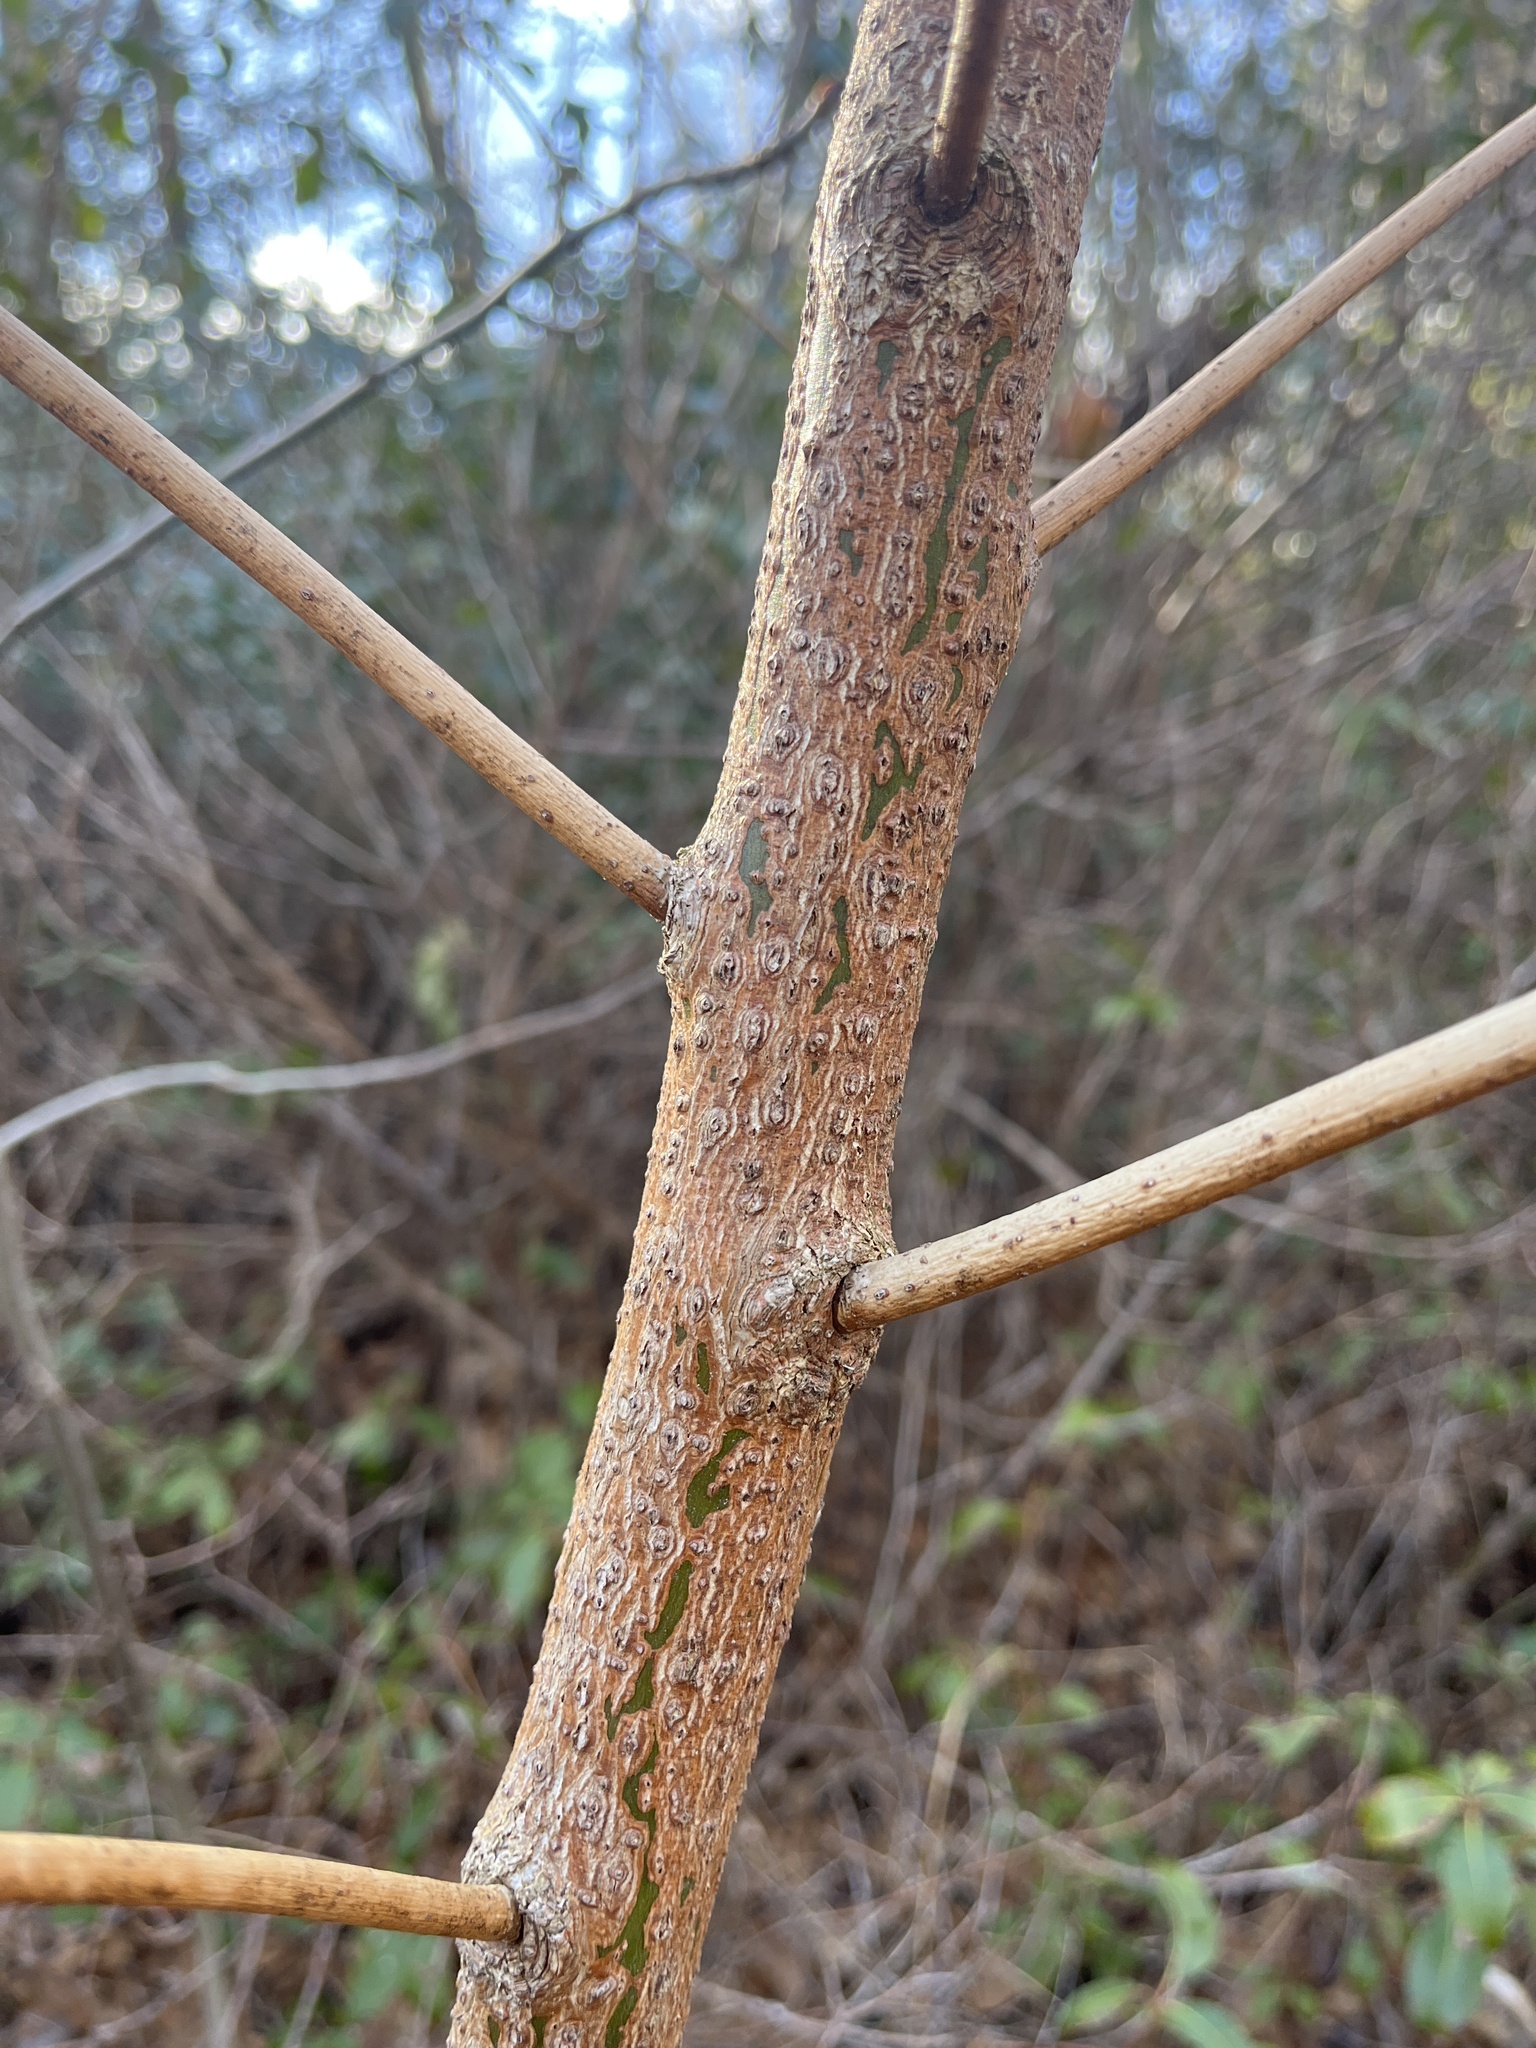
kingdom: Plantae
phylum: Tracheophyta
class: Magnoliopsida
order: Laurales
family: Lauraceae
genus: Sassafras
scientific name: Sassafras albidum
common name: Sassafras
